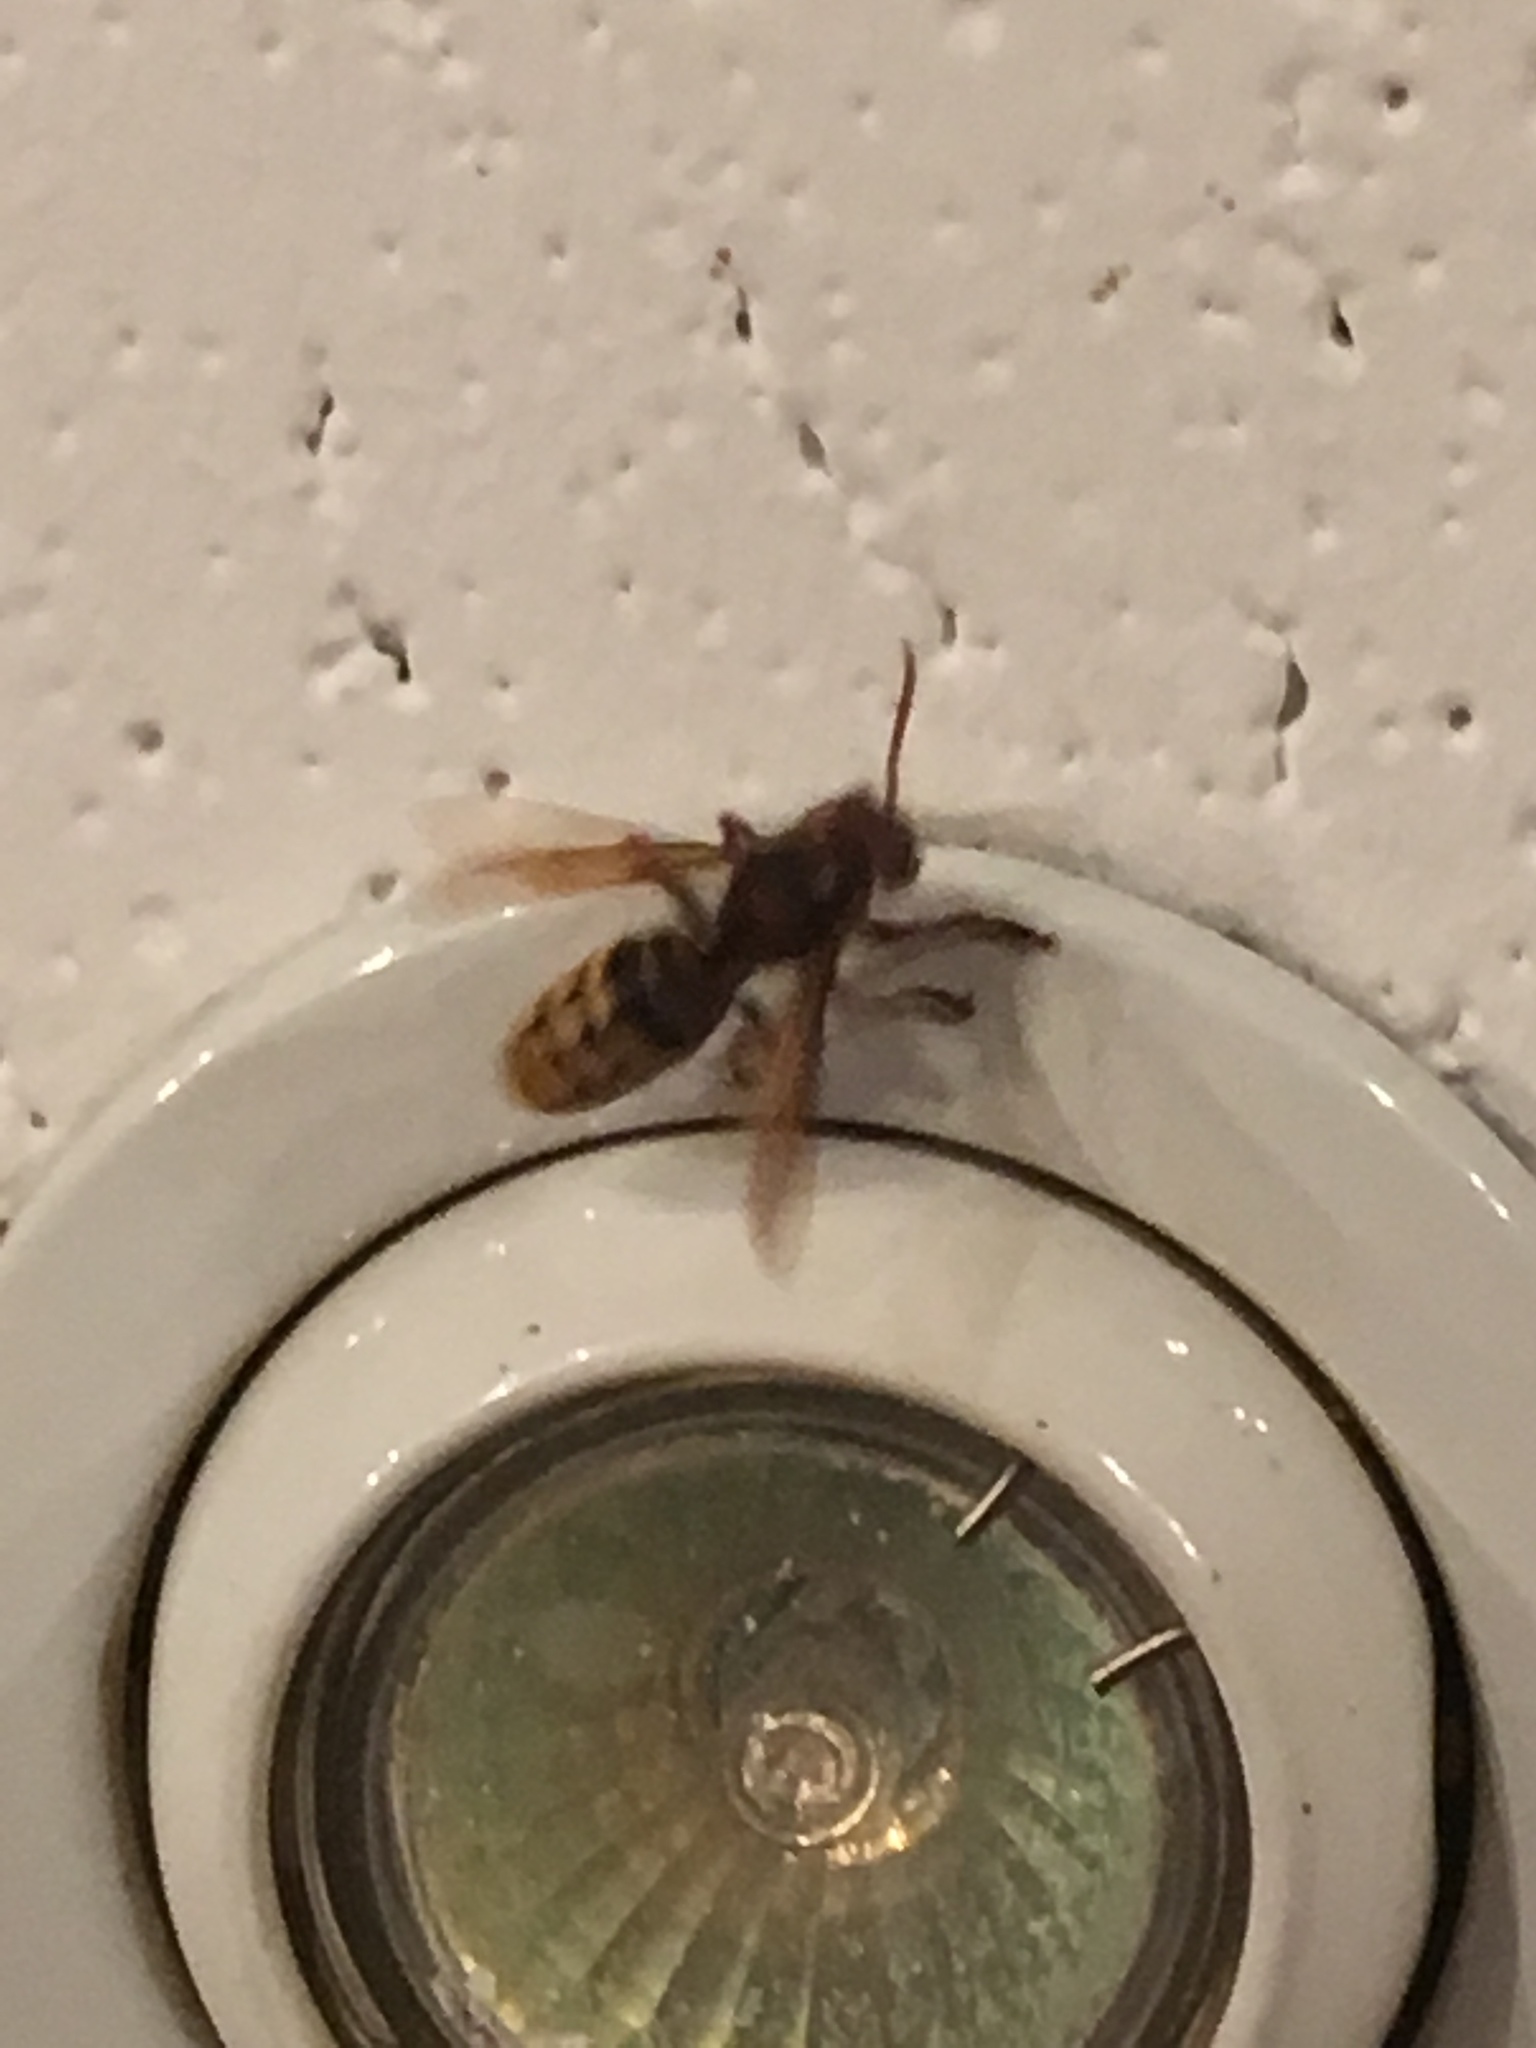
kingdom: Animalia
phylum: Arthropoda
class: Insecta
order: Hymenoptera
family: Vespidae
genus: Vespa
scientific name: Vespa crabro
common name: Hornet
